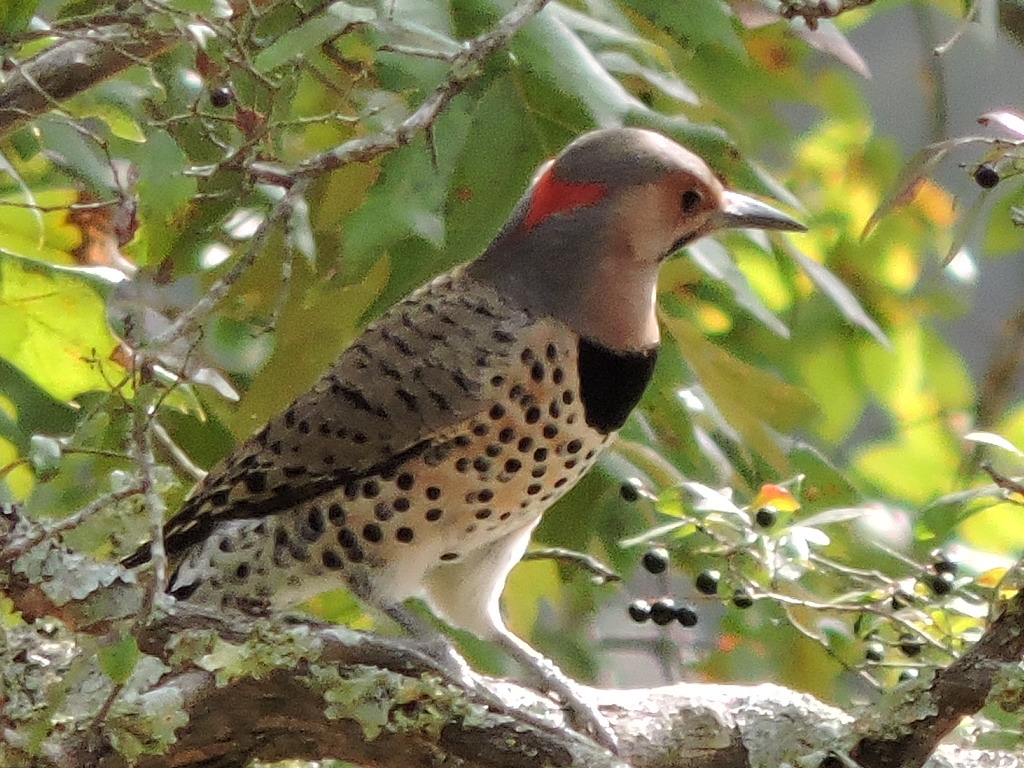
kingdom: Animalia
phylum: Chordata
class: Aves
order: Piciformes
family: Picidae
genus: Colaptes
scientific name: Colaptes auratus
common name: Northern flicker
